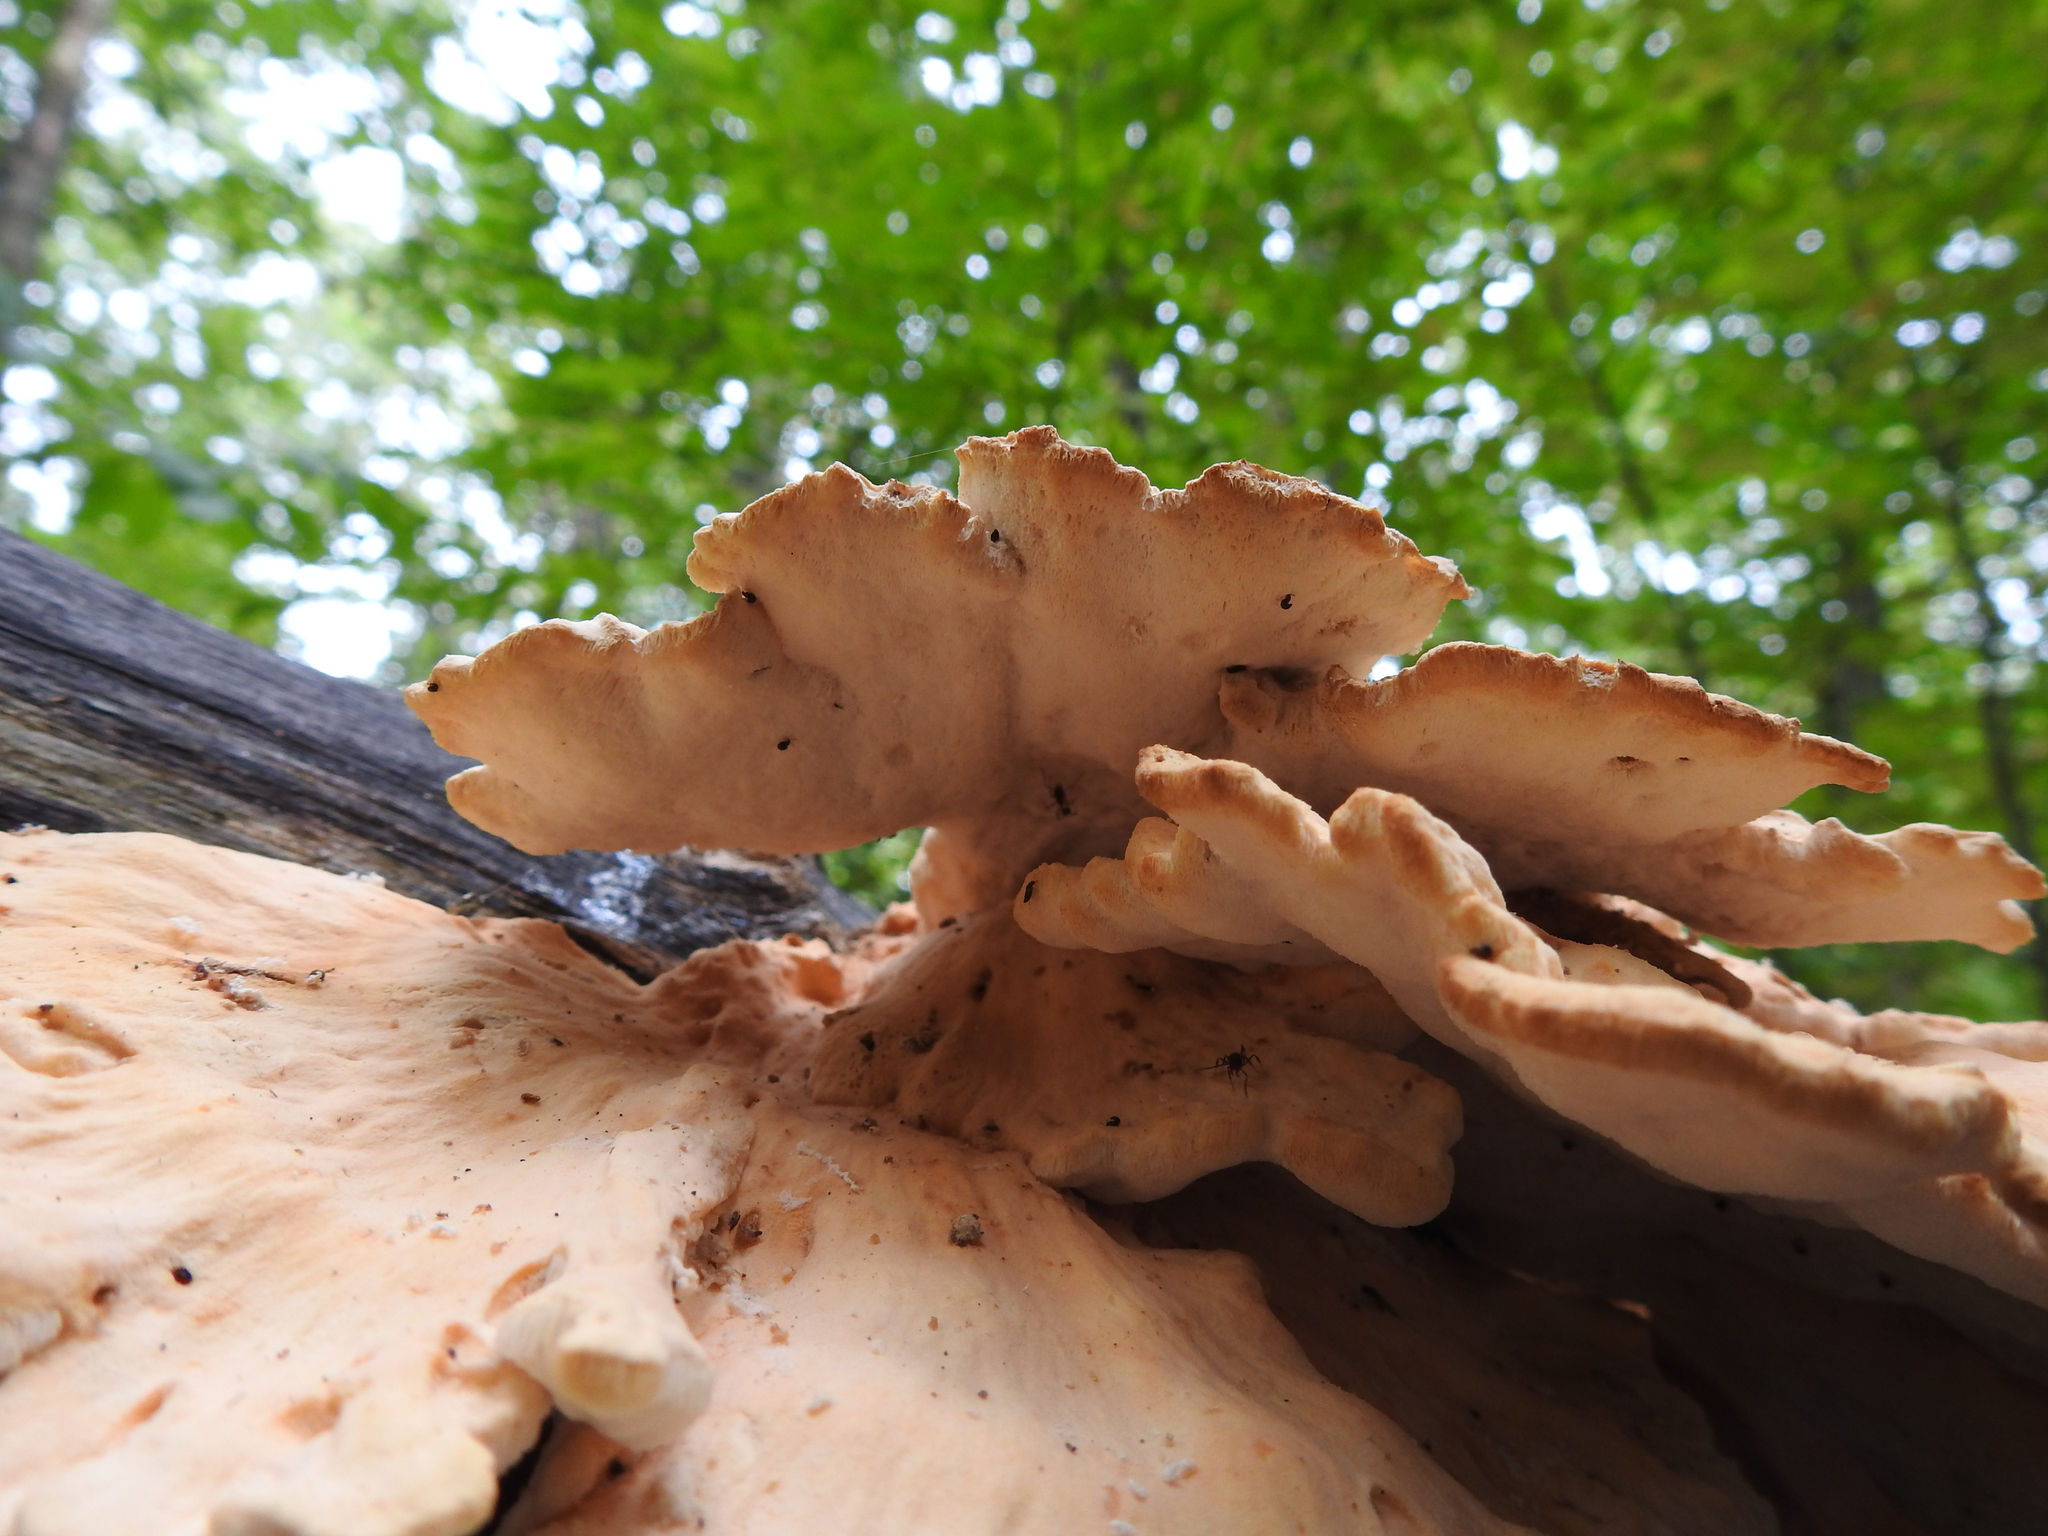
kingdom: Fungi
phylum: Basidiomycota
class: Agaricomycetes
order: Polyporales
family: Laetiporaceae
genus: Laetiporus
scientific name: Laetiporus sulphureus
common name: Chicken of the woods
